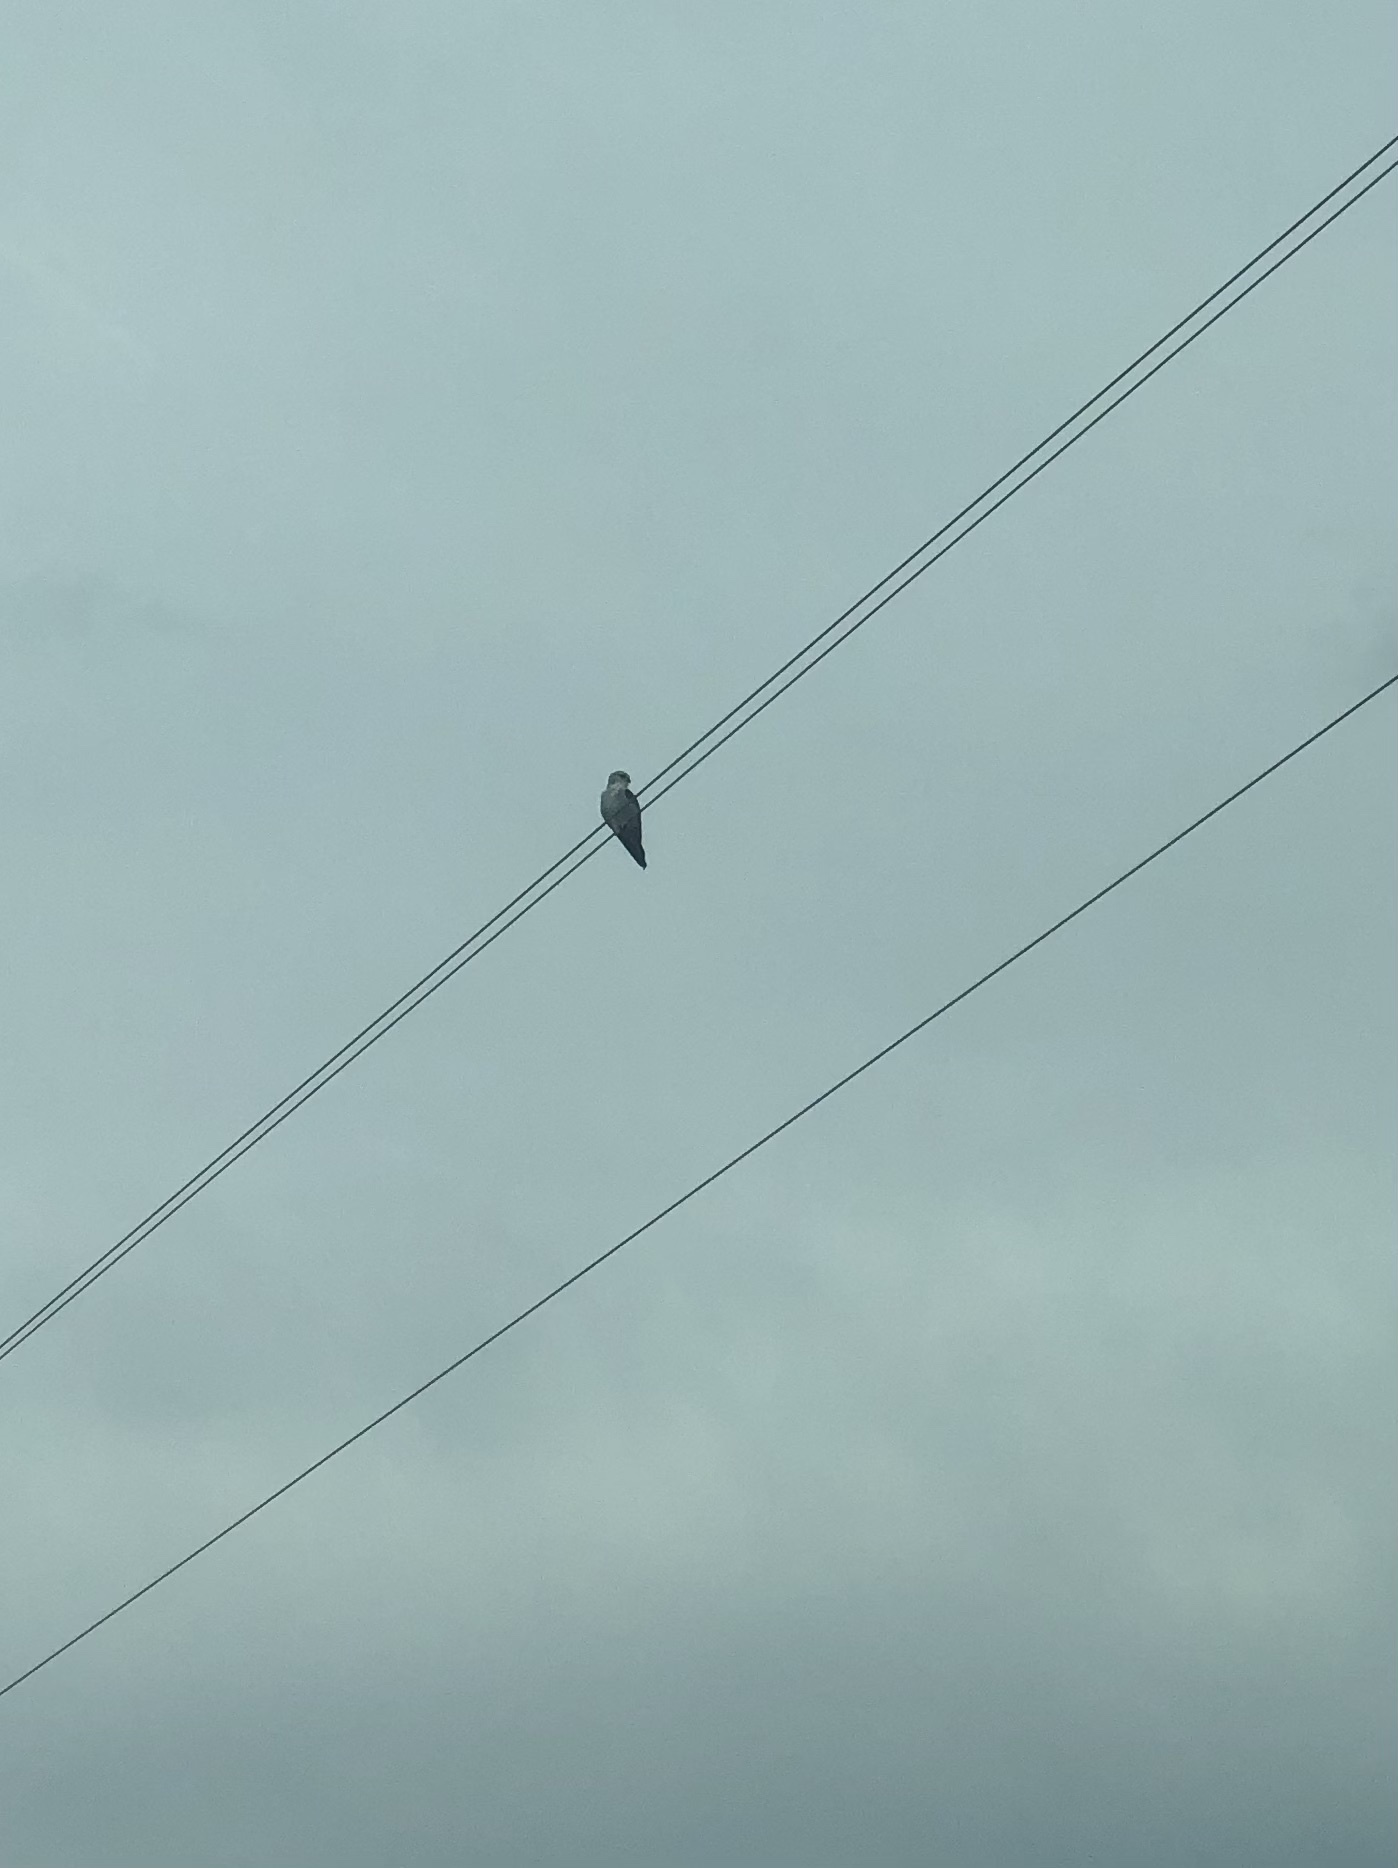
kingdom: Animalia
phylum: Chordata
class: Aves
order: Accipitriformes
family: Accipitridae
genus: Elanus
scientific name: Elanus caeruleus
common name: Black-winged kite
